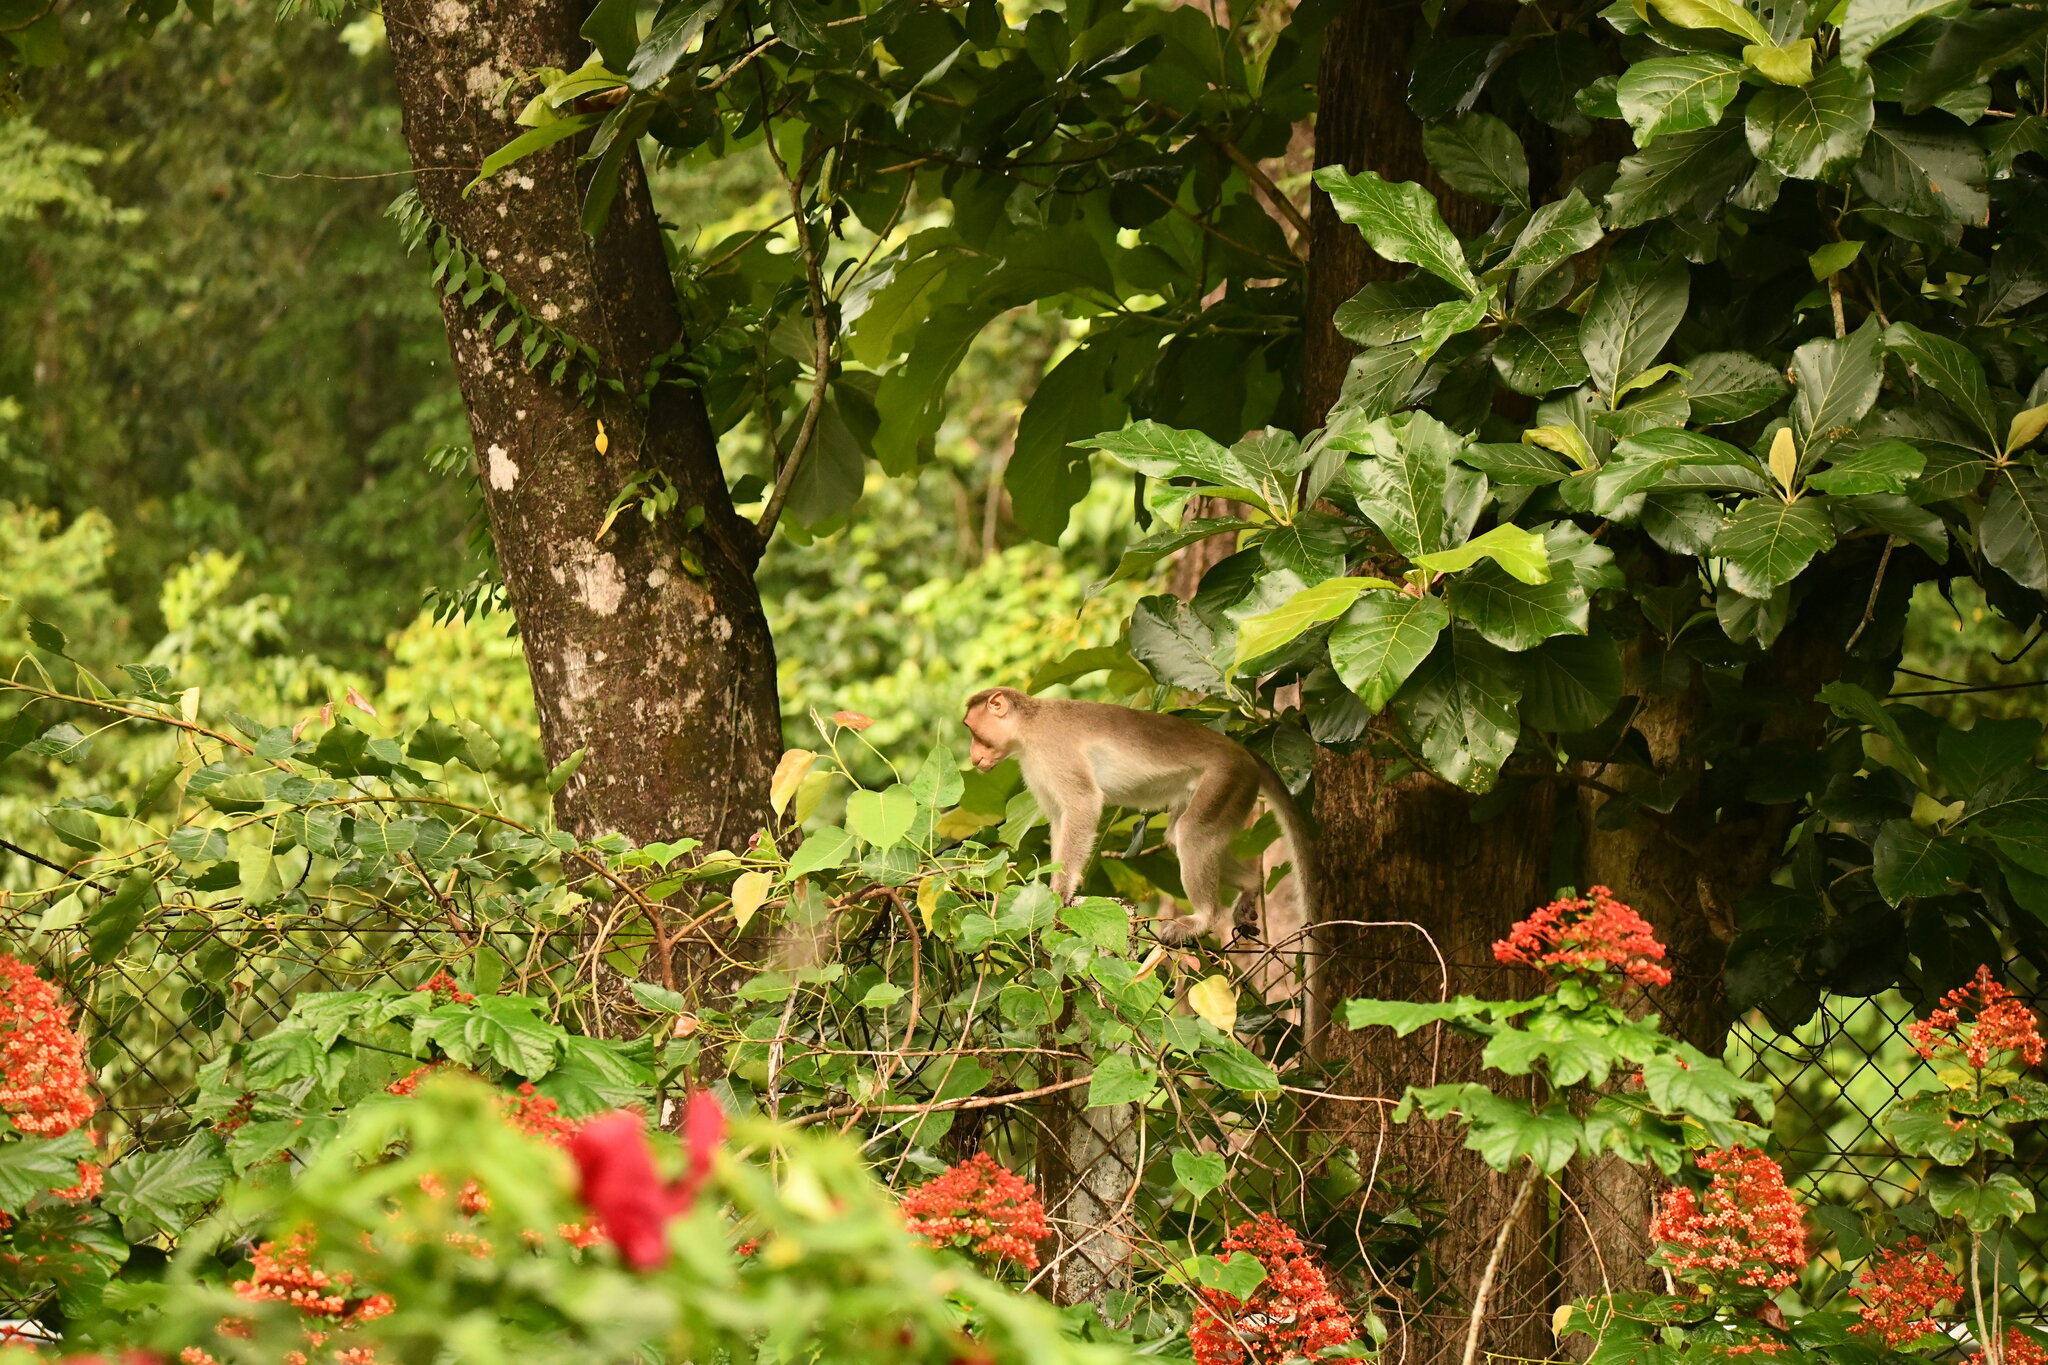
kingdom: Animalia
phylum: Chordata
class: Mammalia
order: Primates
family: Cercopithecidae
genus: Macaca
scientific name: Macaca radiata
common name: Bonnet macaque
